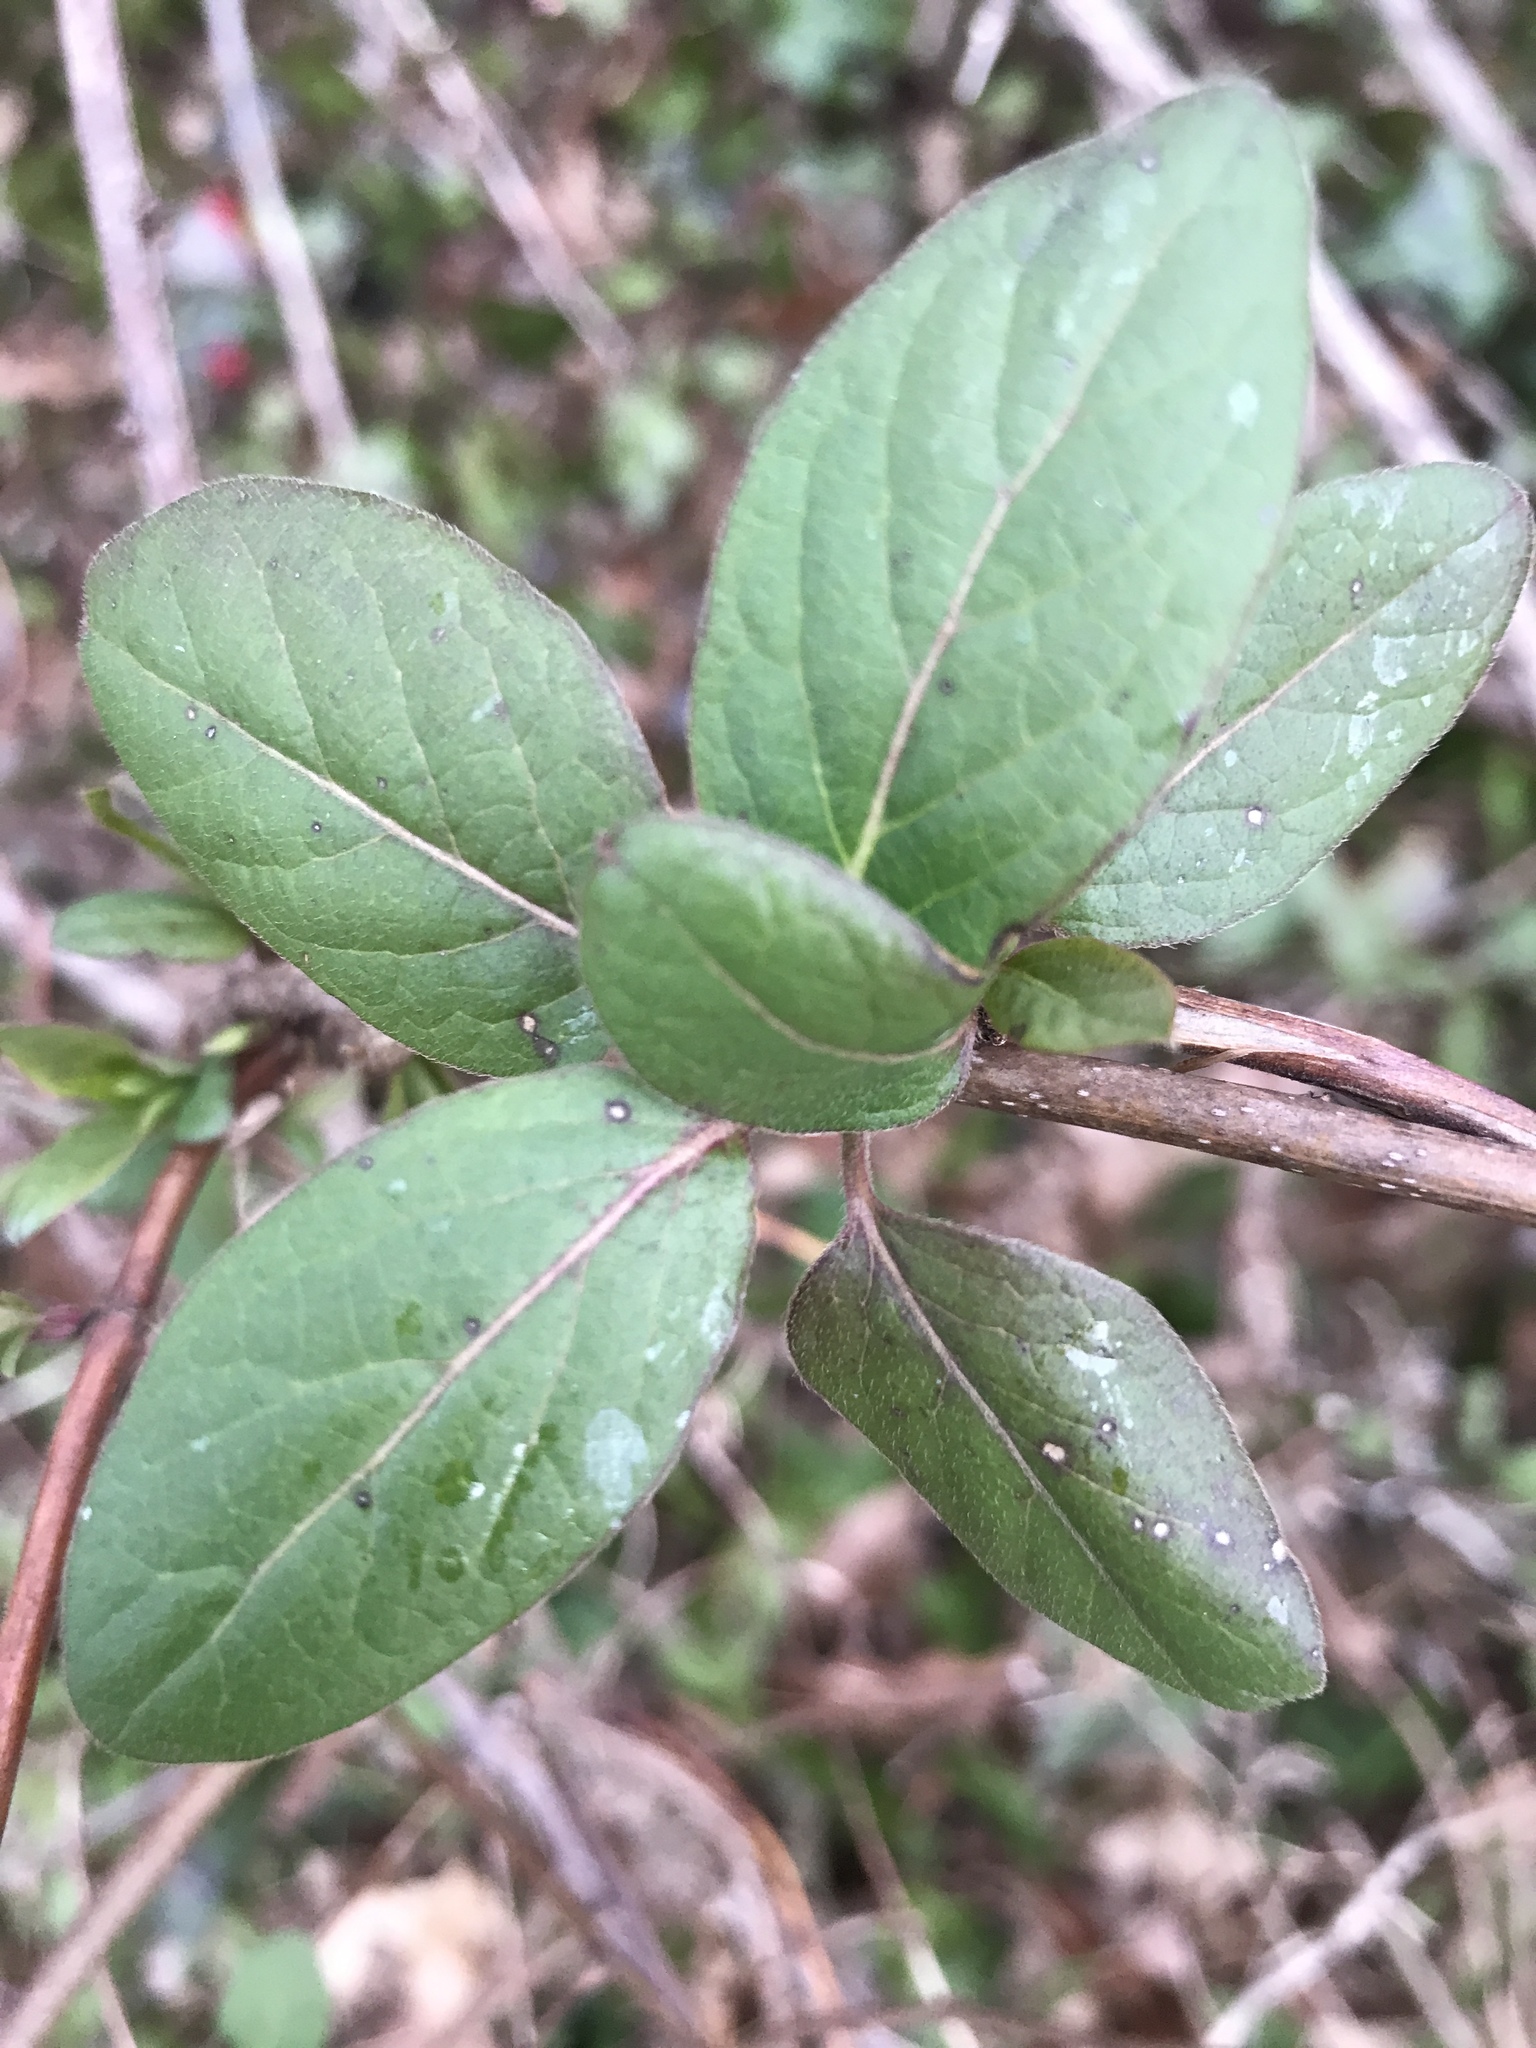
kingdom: Plantae
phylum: Tracheophyta
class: Magnoliopsida
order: Dipsacales
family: Caprifoliaceae
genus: Lonicera
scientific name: Lonicera japonica
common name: Japanese honeysuckle
